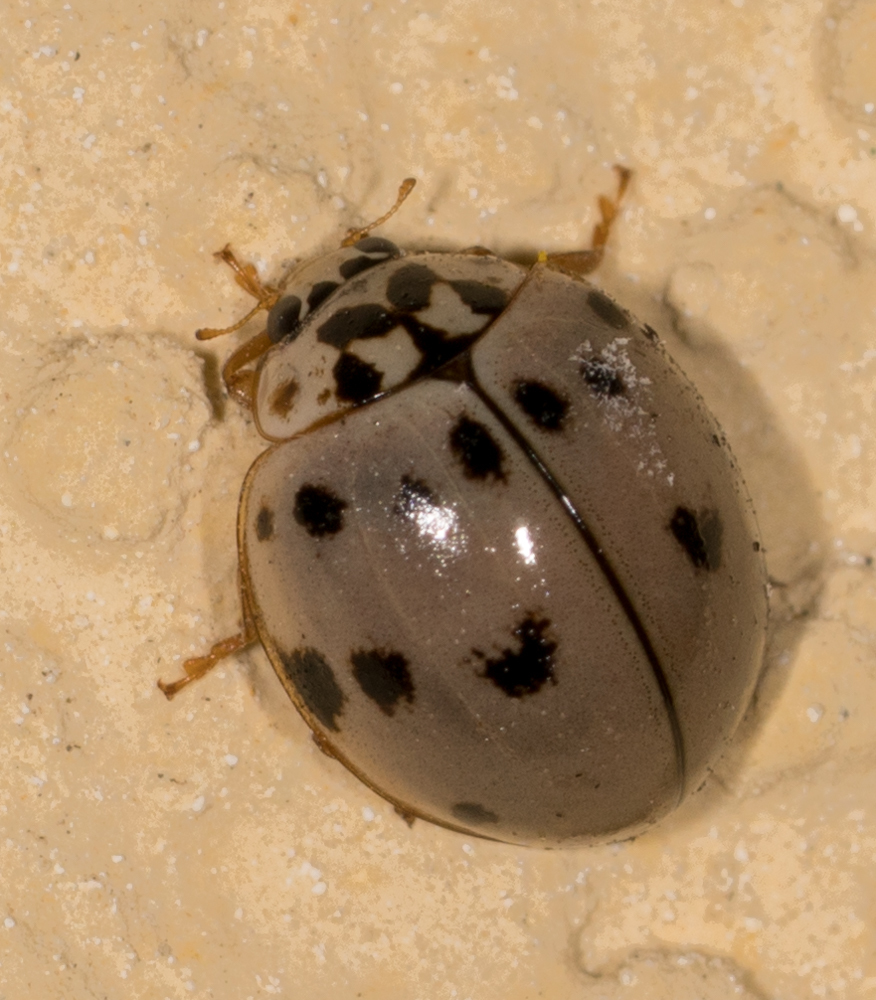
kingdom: Animalia
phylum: Arthropoda
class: Insecta
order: Coleoptera
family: Coccinellidae
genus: Olla
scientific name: Olla v-nigrum
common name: Ashy gray lady beetle
